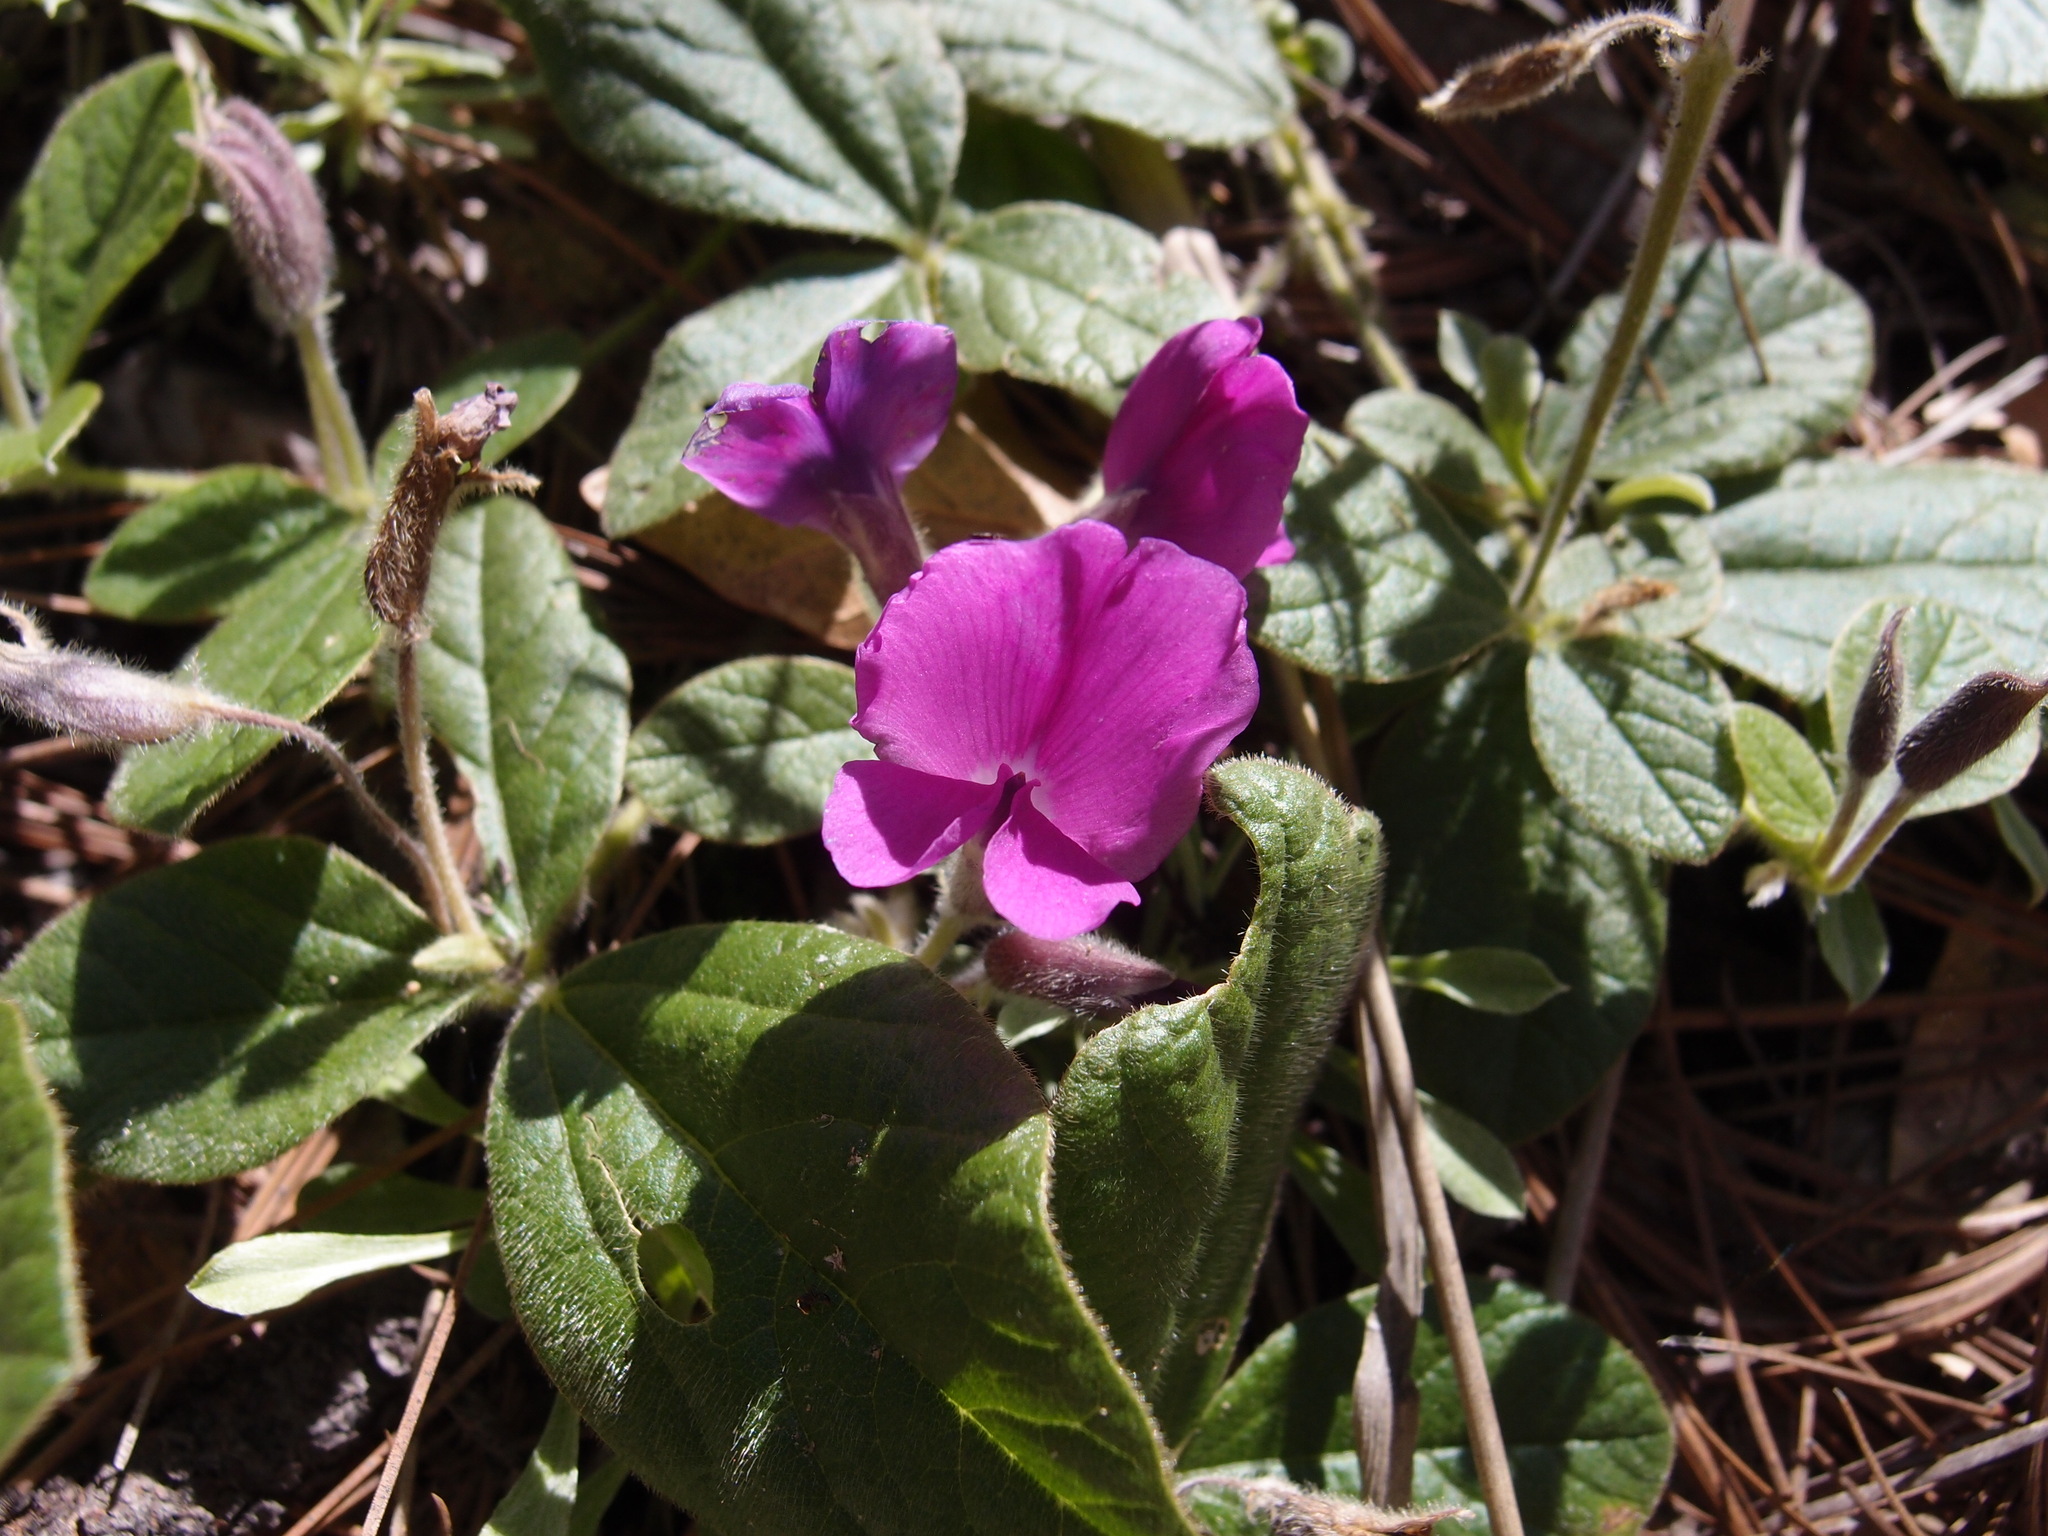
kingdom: Plantae
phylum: Tracheophyta
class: Magnoliopsida
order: Fabales
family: Fabaceae
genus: Cologania
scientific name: Cologania obovata
